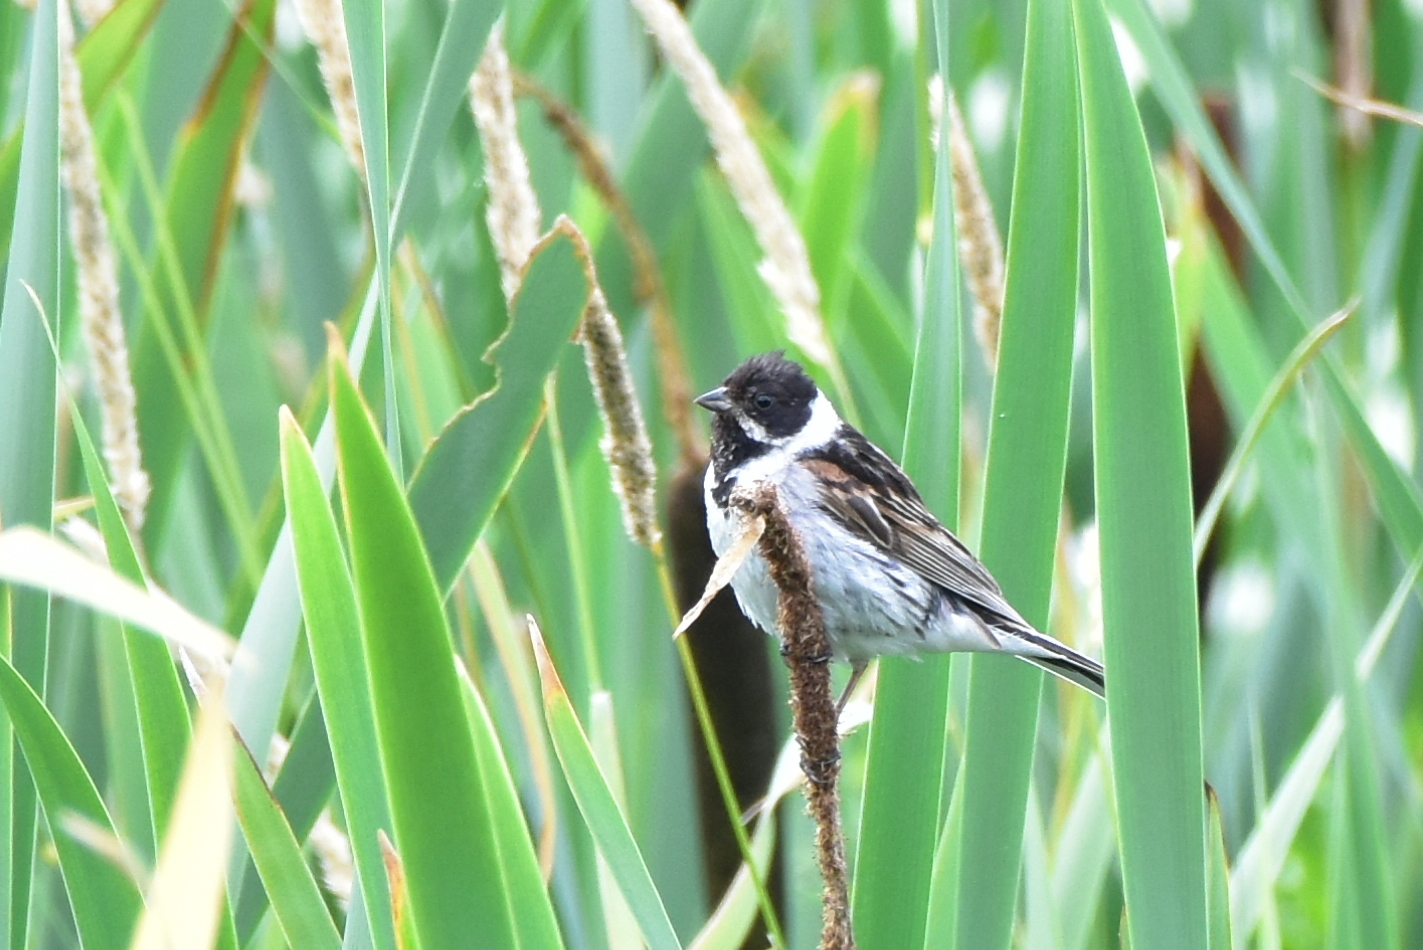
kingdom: Animalia
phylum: Chordata
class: Aves
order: Passeriformes
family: Emberizidae
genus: Emberiza
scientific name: Emberiza schoeniclus
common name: Reed bunting
